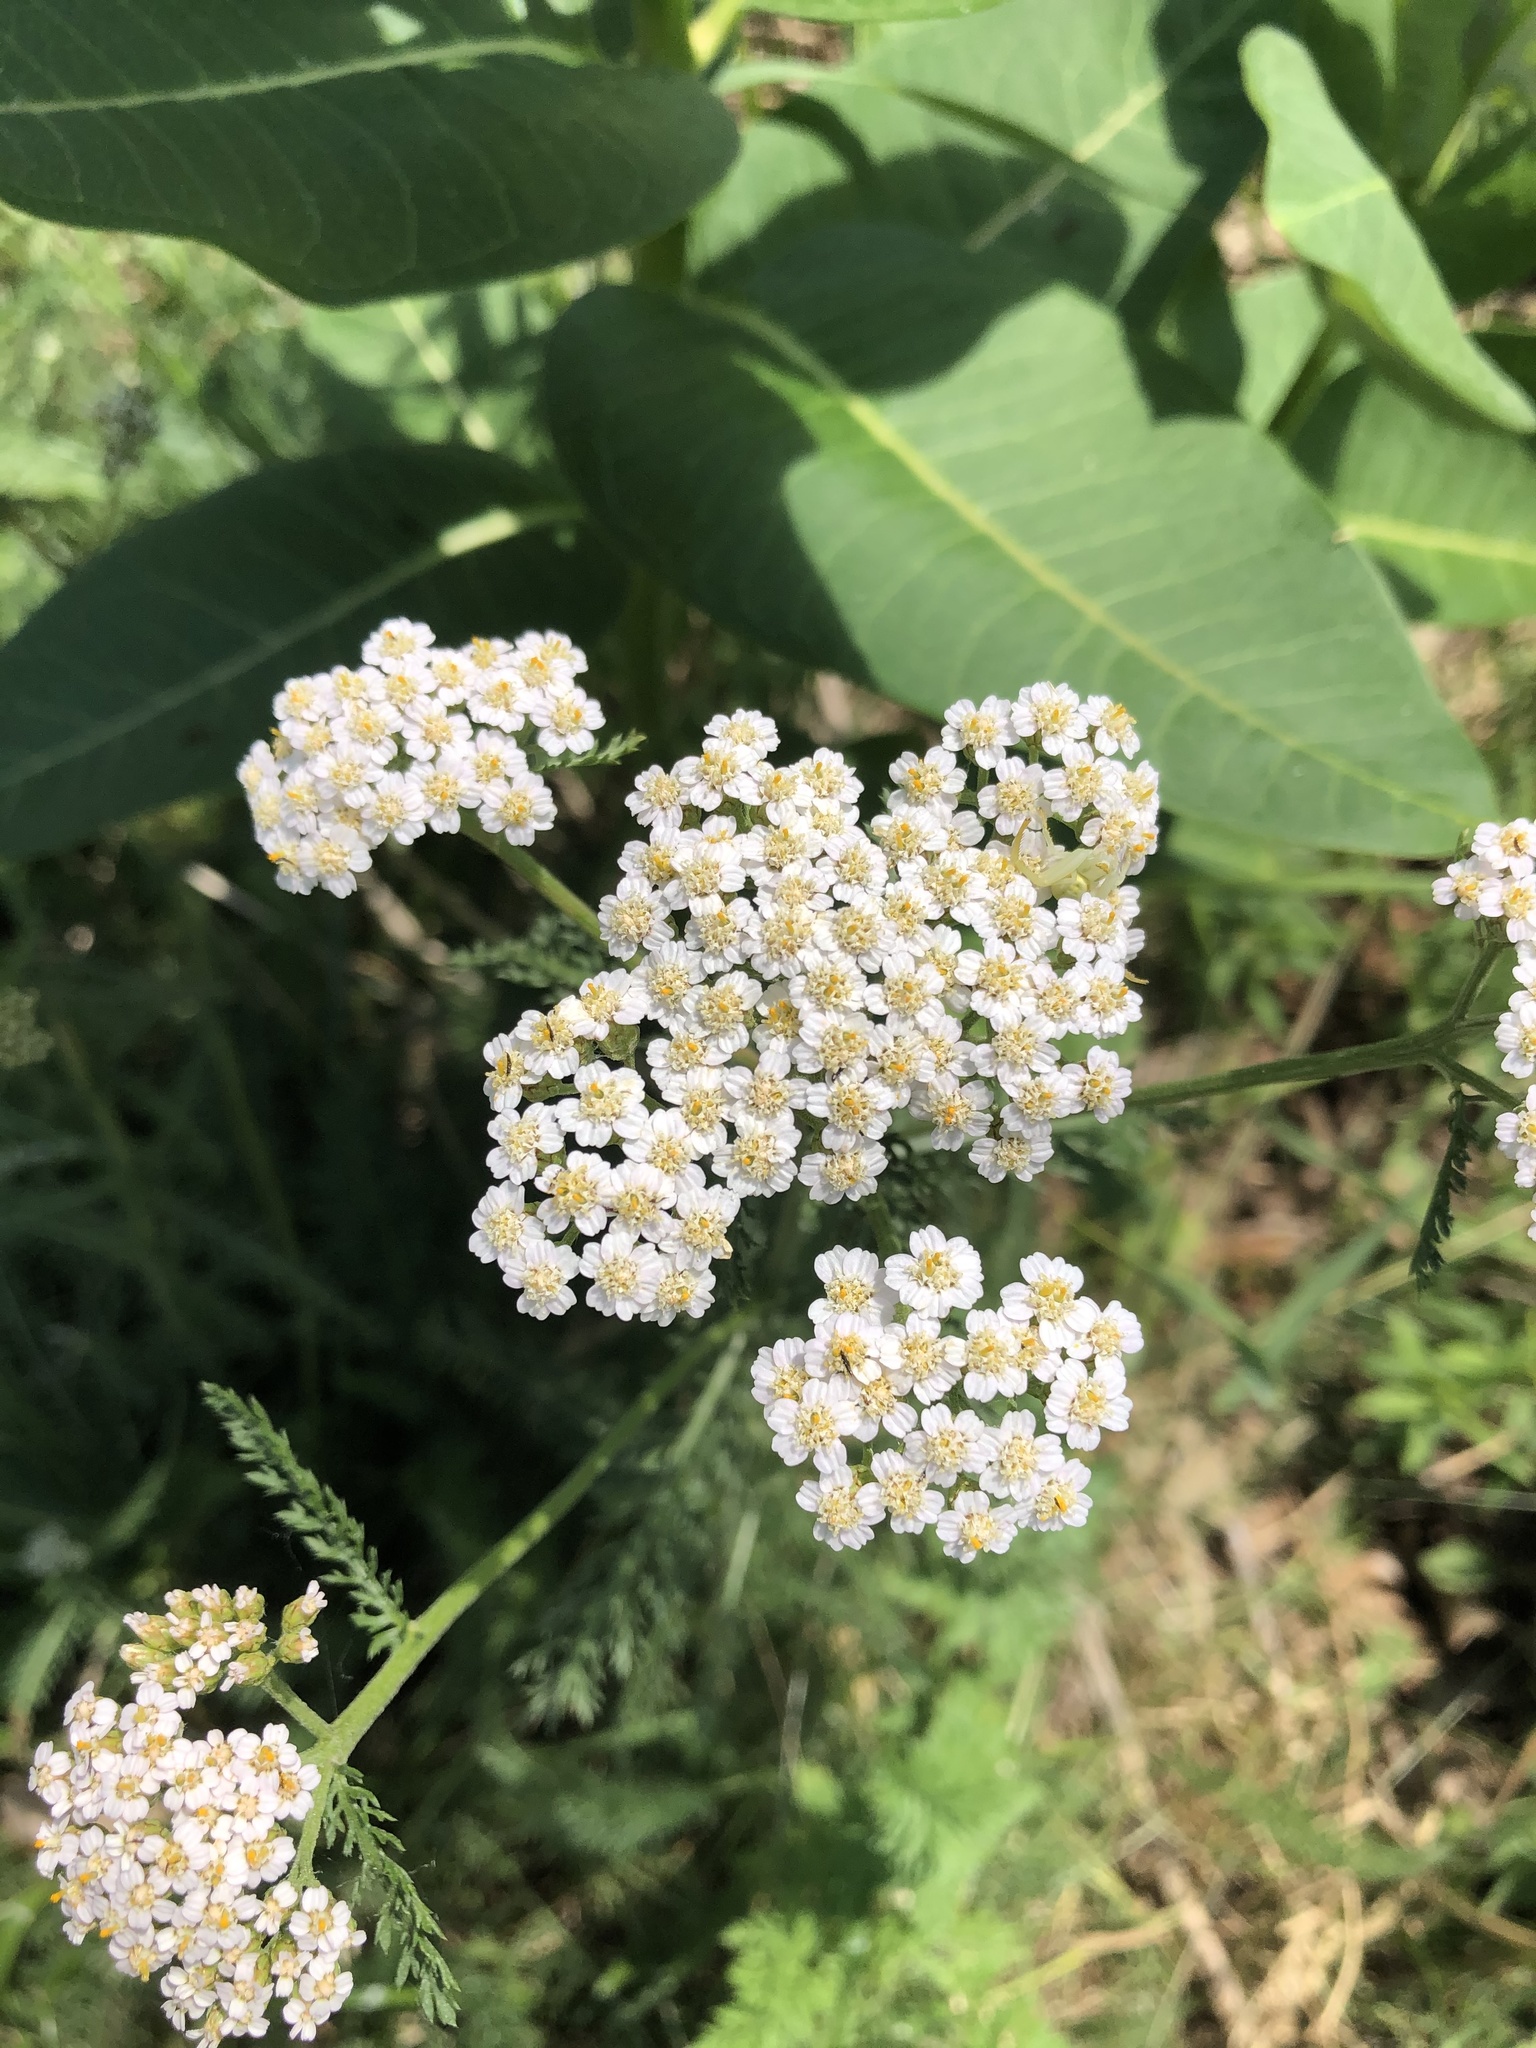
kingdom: Plantae
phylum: Tracheophyta
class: Magnoliopsida
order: Asterales
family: Asteraceae
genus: Achillea
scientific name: Achillea millefolium
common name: Yarrow
